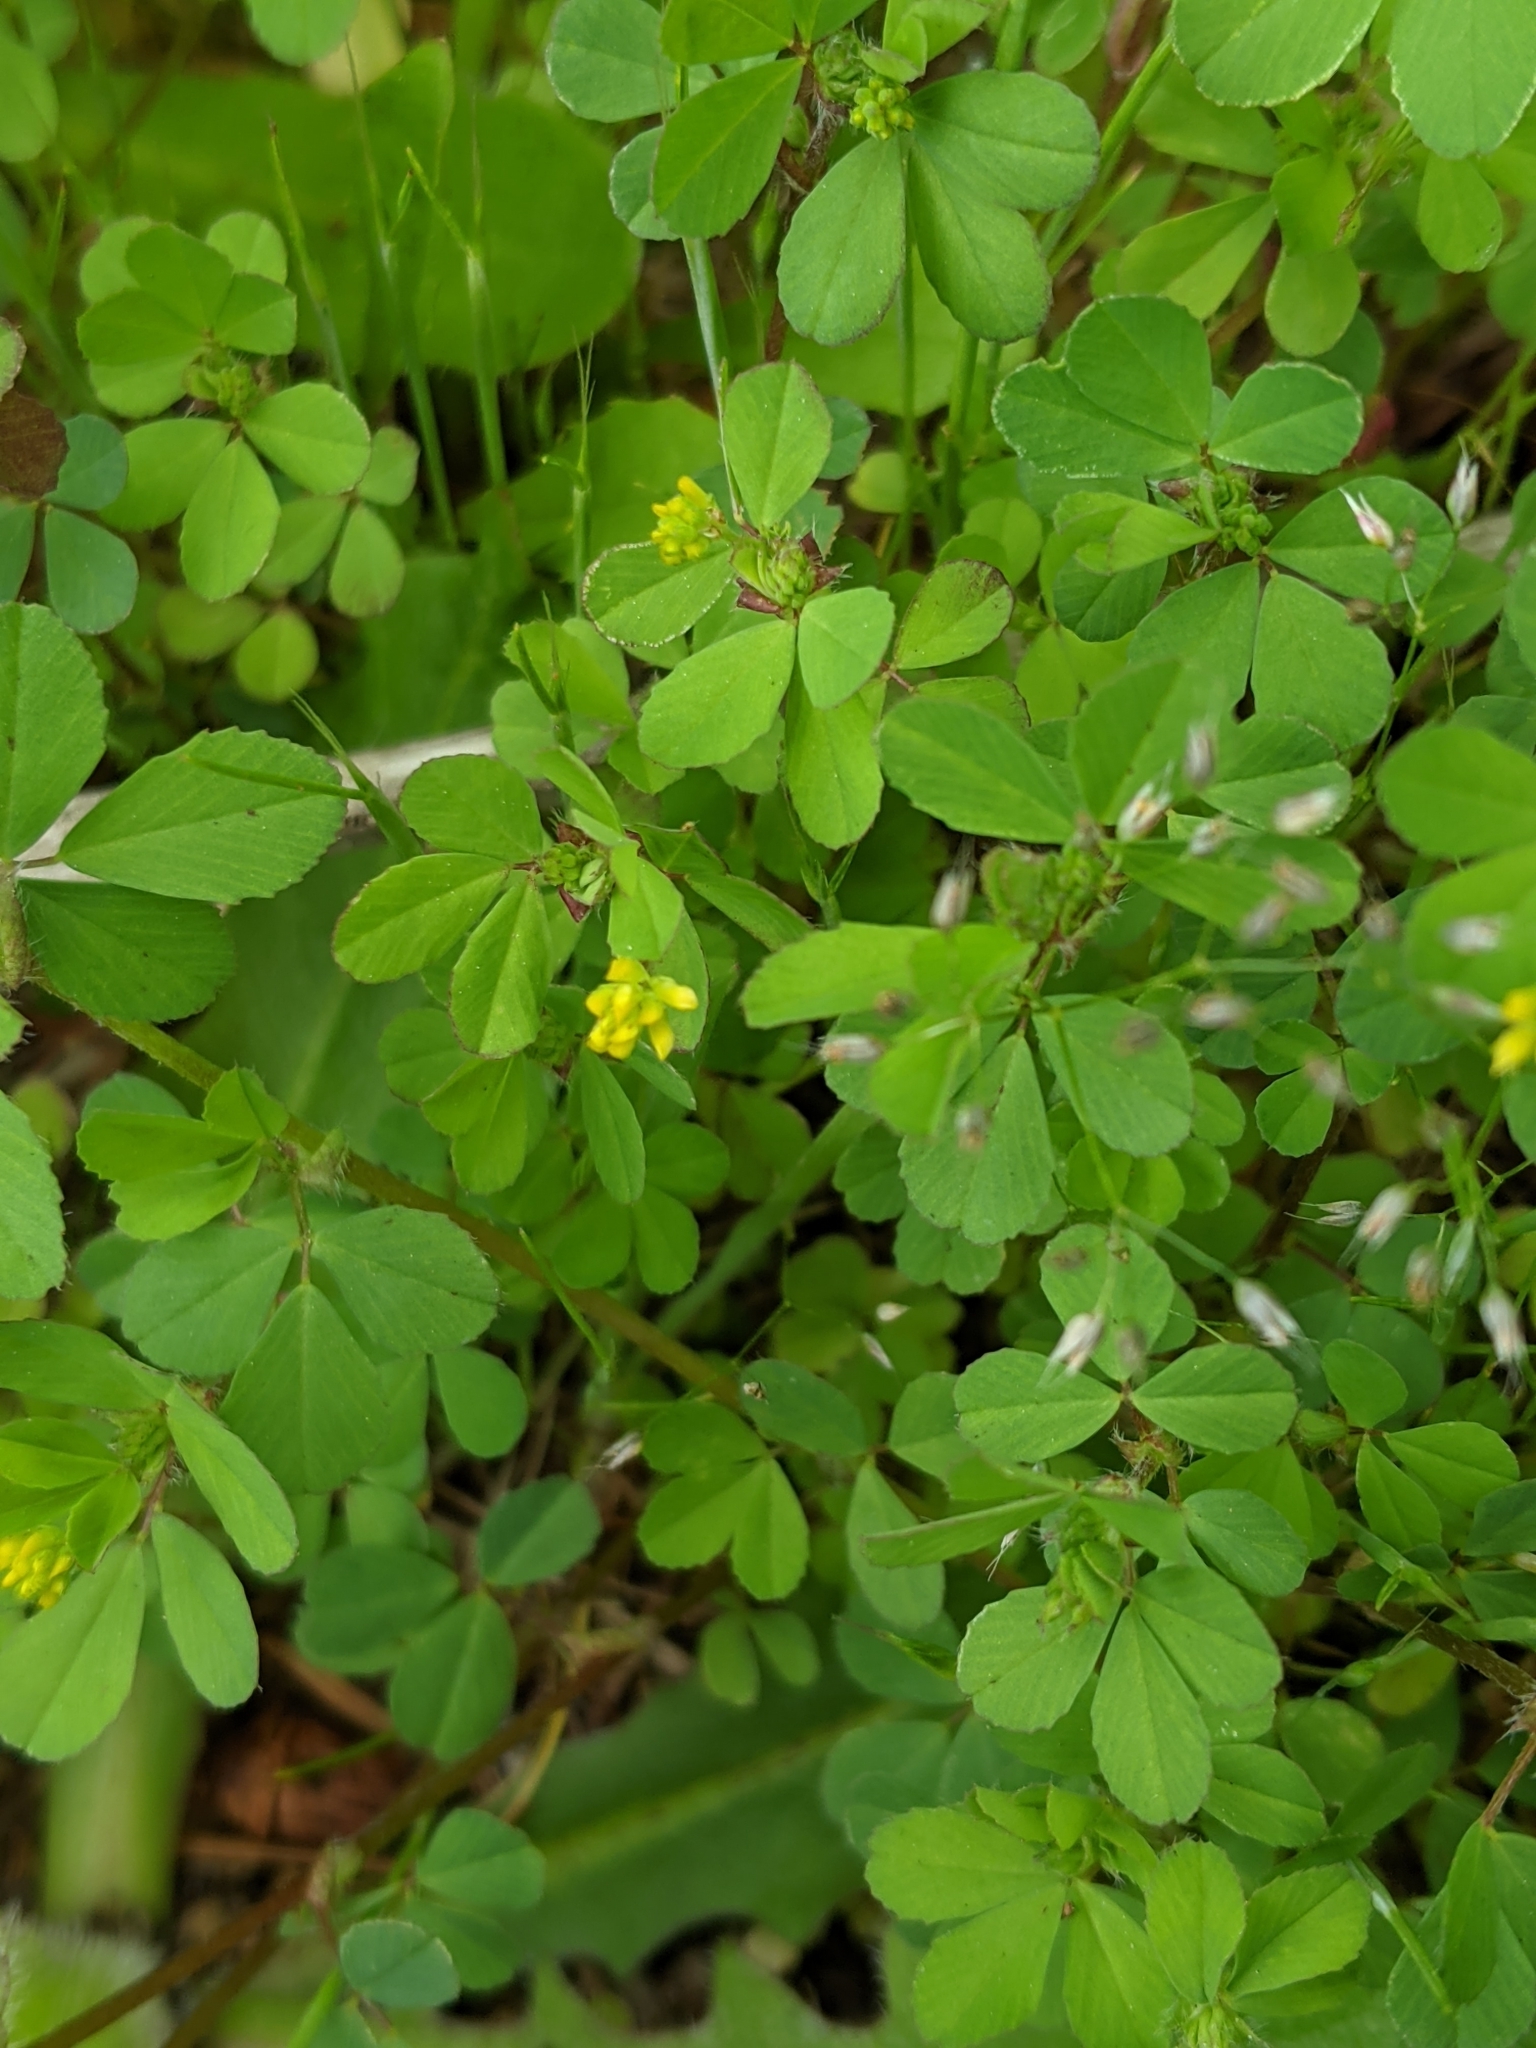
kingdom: Plantae
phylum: Tracheophyta
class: Magnoliopsida
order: Fabales
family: Fabaceae
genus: Trifolium
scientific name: Trifolium dubium
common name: Suckling clover
